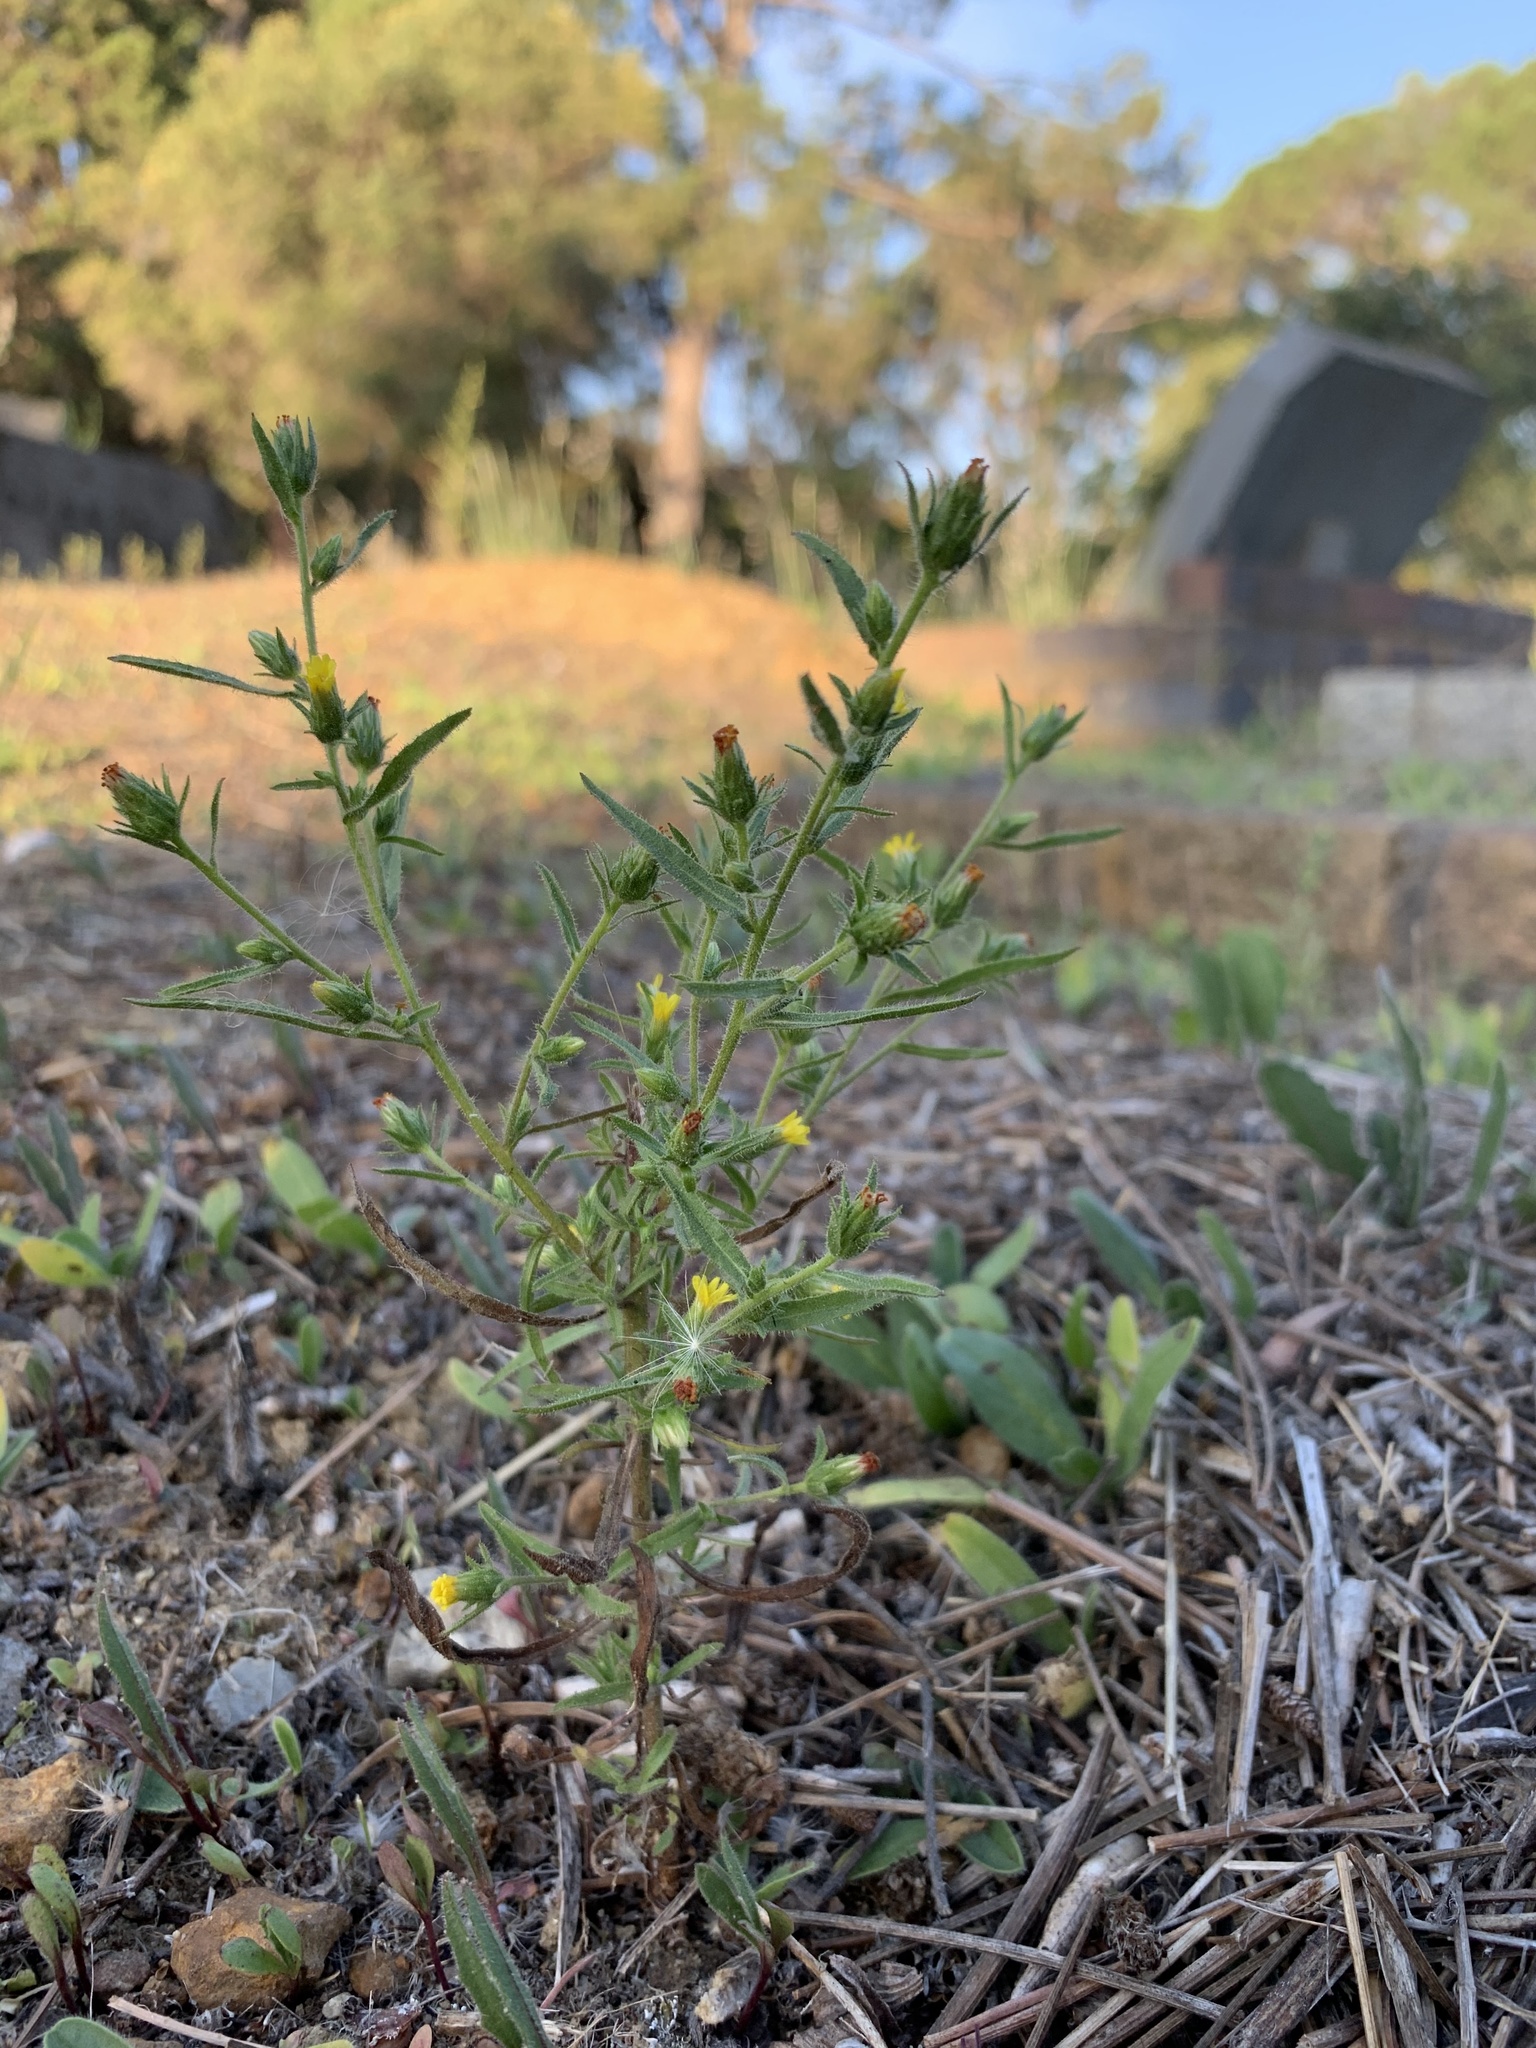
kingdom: Plantae
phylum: Tracheophyta
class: Magnoliopsida
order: Asterales
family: Asteraceae
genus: Dittrichia
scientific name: Dittrichia graveolens
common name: Stinking fleabane
